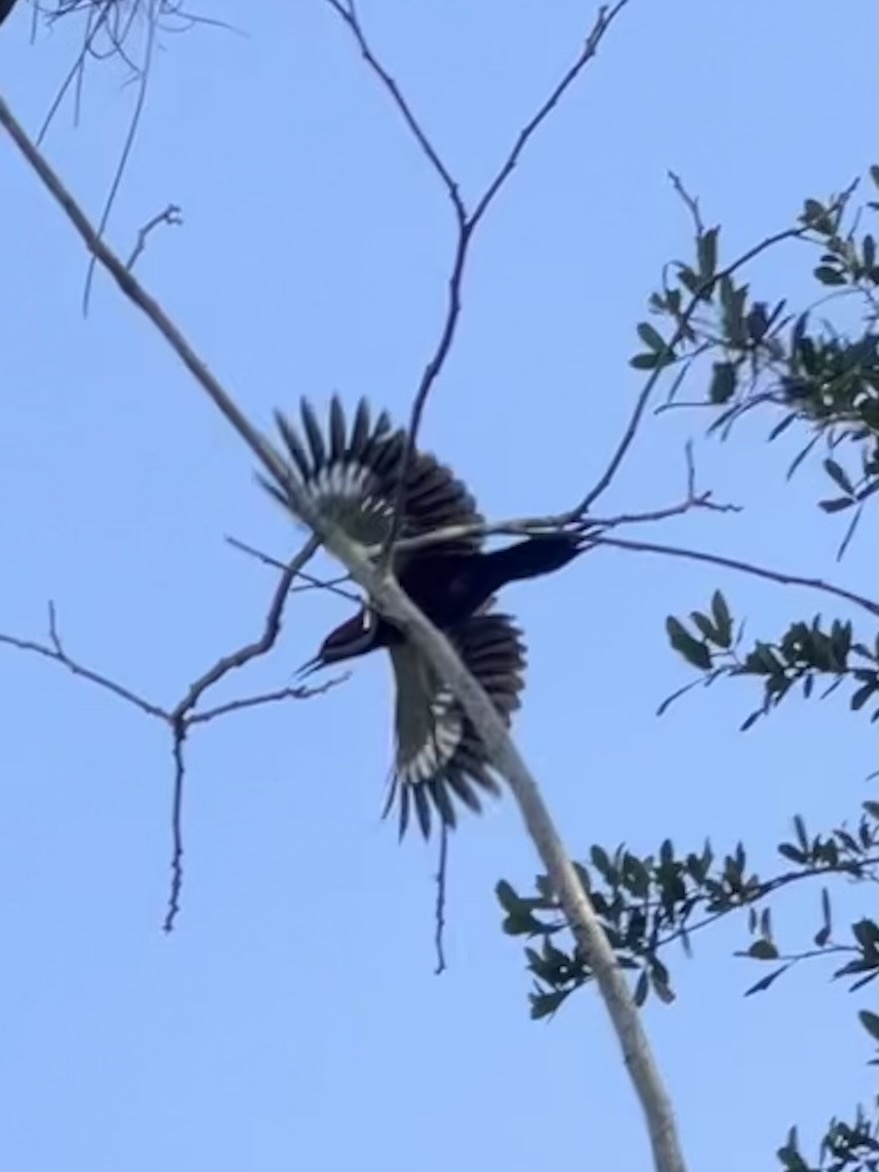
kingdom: Animalia
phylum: Chordata
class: Aves
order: Piciformes
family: Picidae
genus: Dryocopus
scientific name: Dryocopus pileatus
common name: Pileated woodpecker
